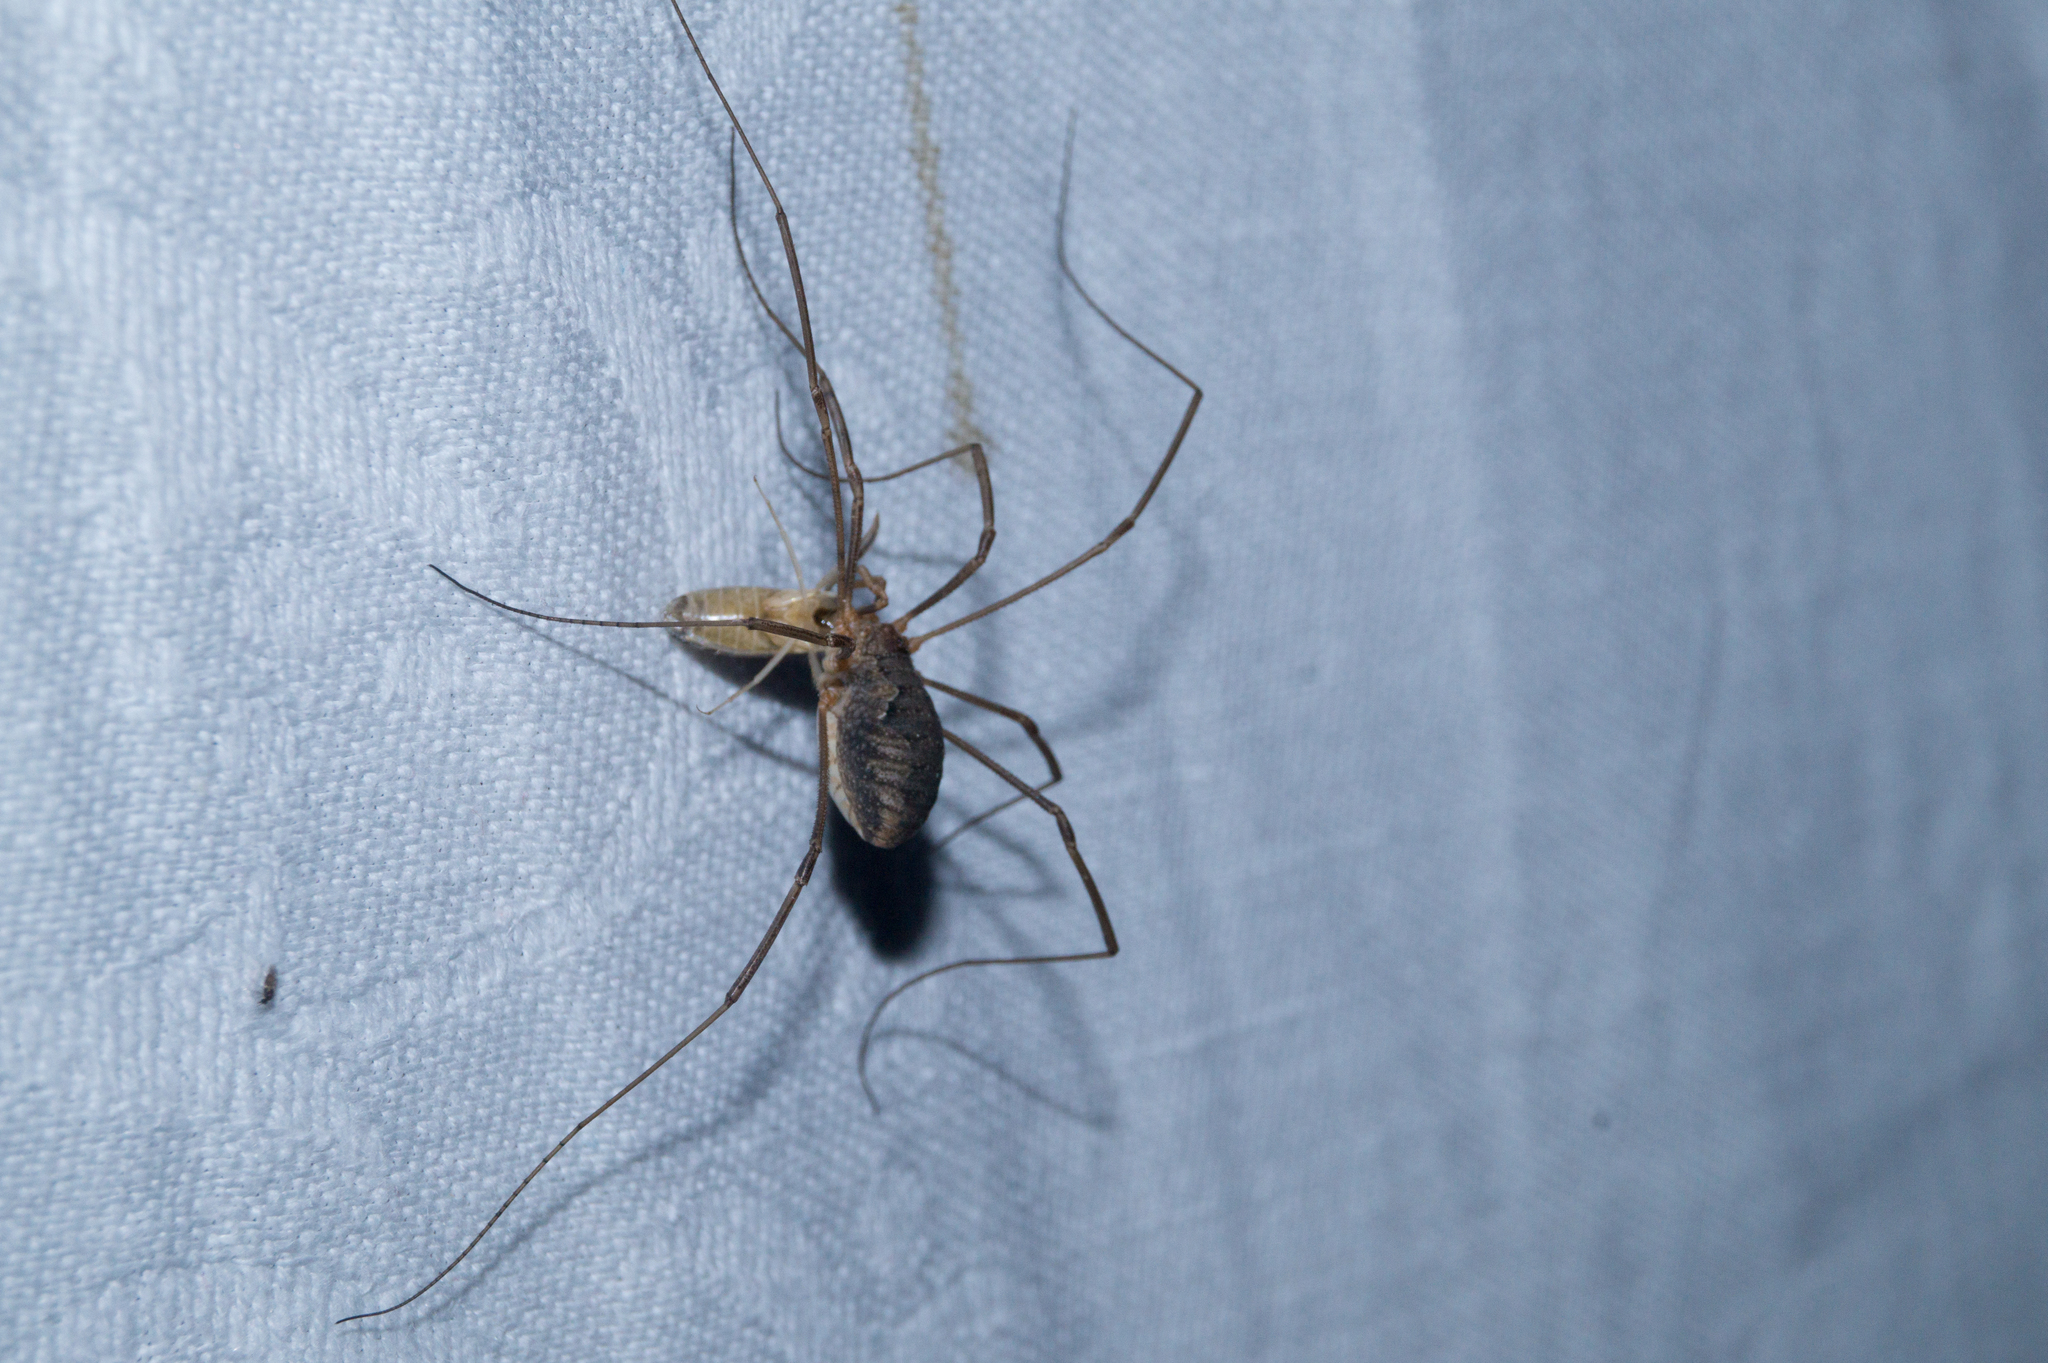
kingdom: Animalia
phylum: Arthropoda
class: Arachnida
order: Opiliones
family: Phalangiidae
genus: Phalangium
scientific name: Phalangium opilio
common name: Daddy longleg
